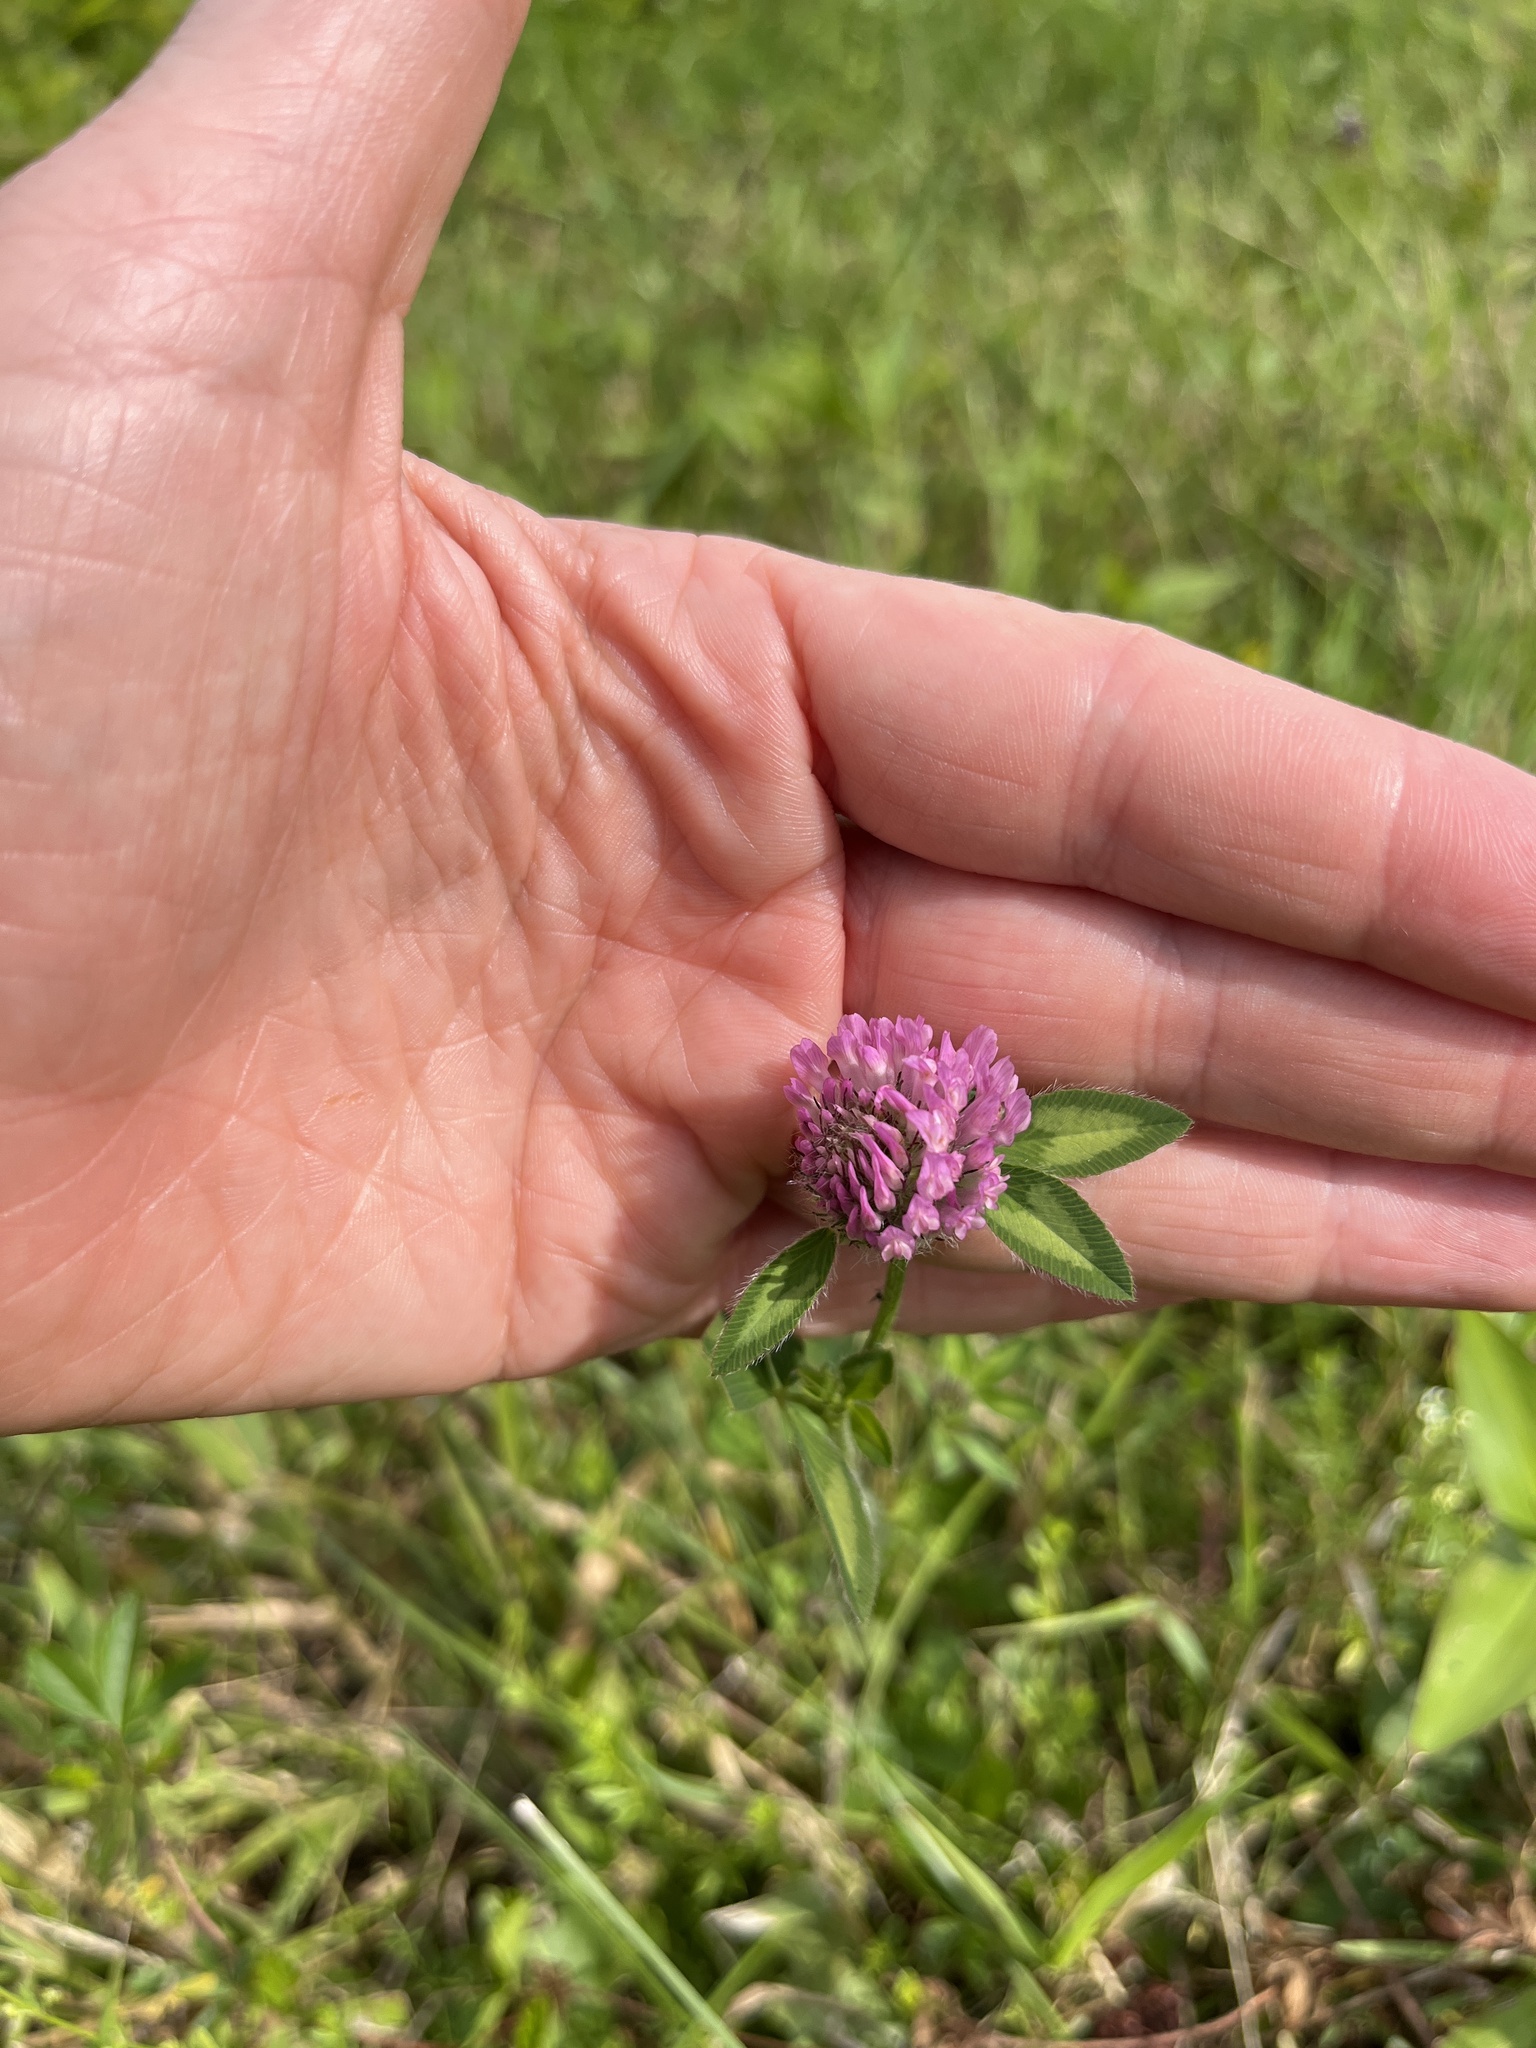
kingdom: Plantae
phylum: Tracheophyta
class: Magnoliopsida
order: Fabales
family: Fabaceae
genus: Trifolium
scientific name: Trifolium pratense
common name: Red clover
